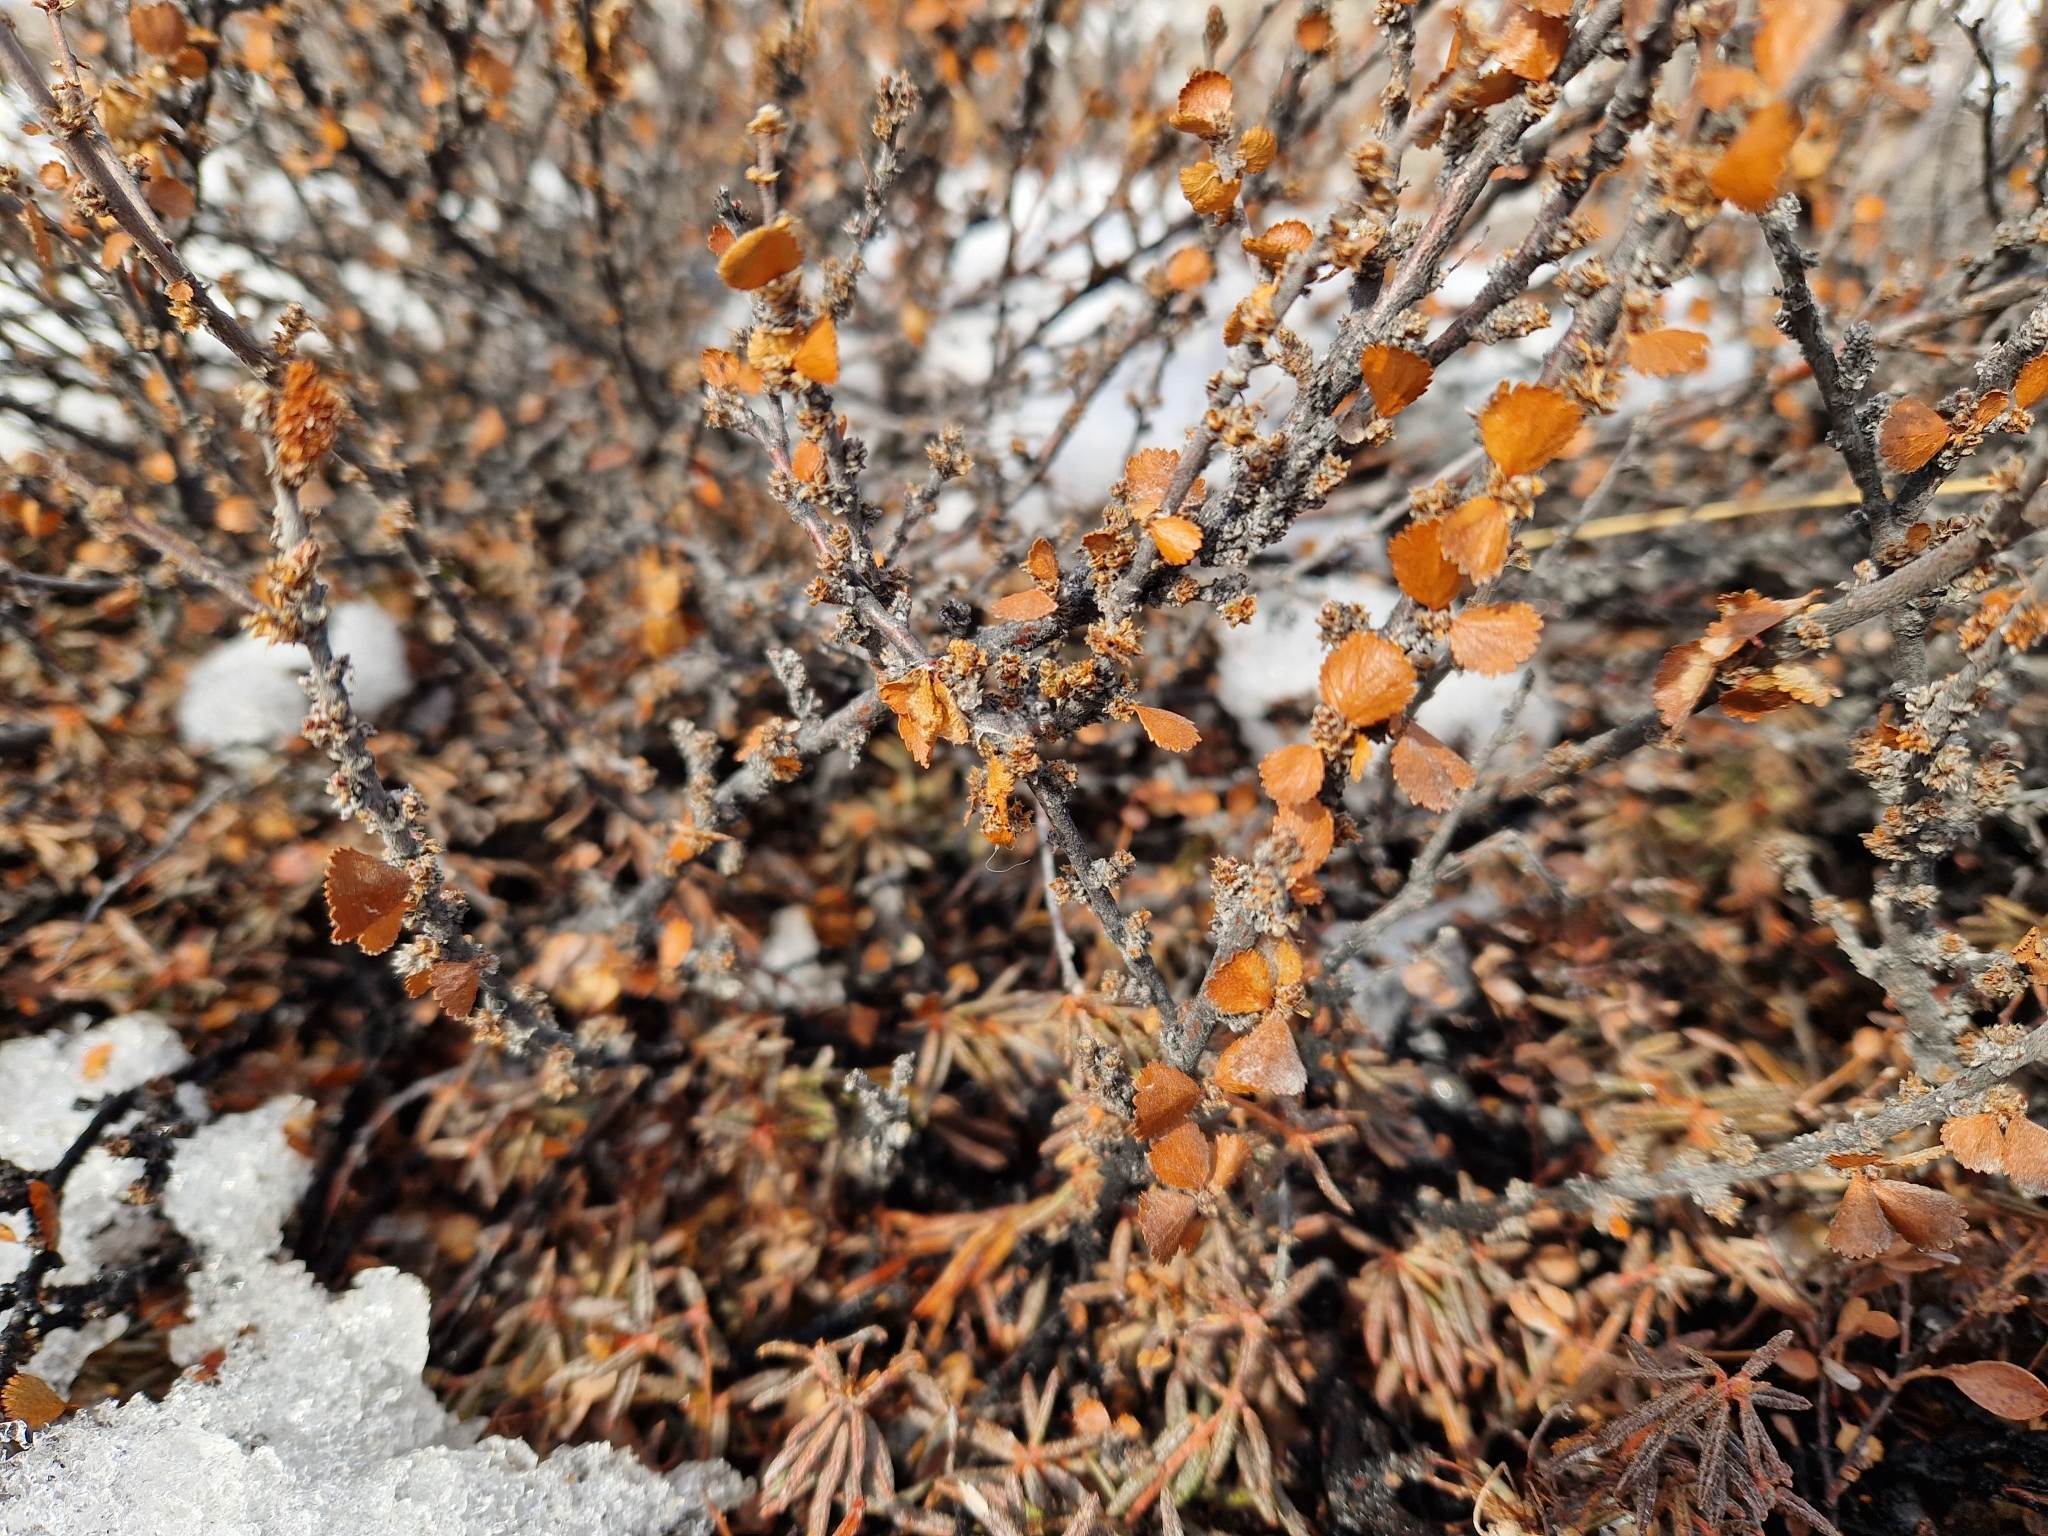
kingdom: Plantae
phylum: Tracheophyta
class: Magnoliopsida
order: Fagales
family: Betulaceae
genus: Betula
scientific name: Betula nana
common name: Arctic dwarf birch
